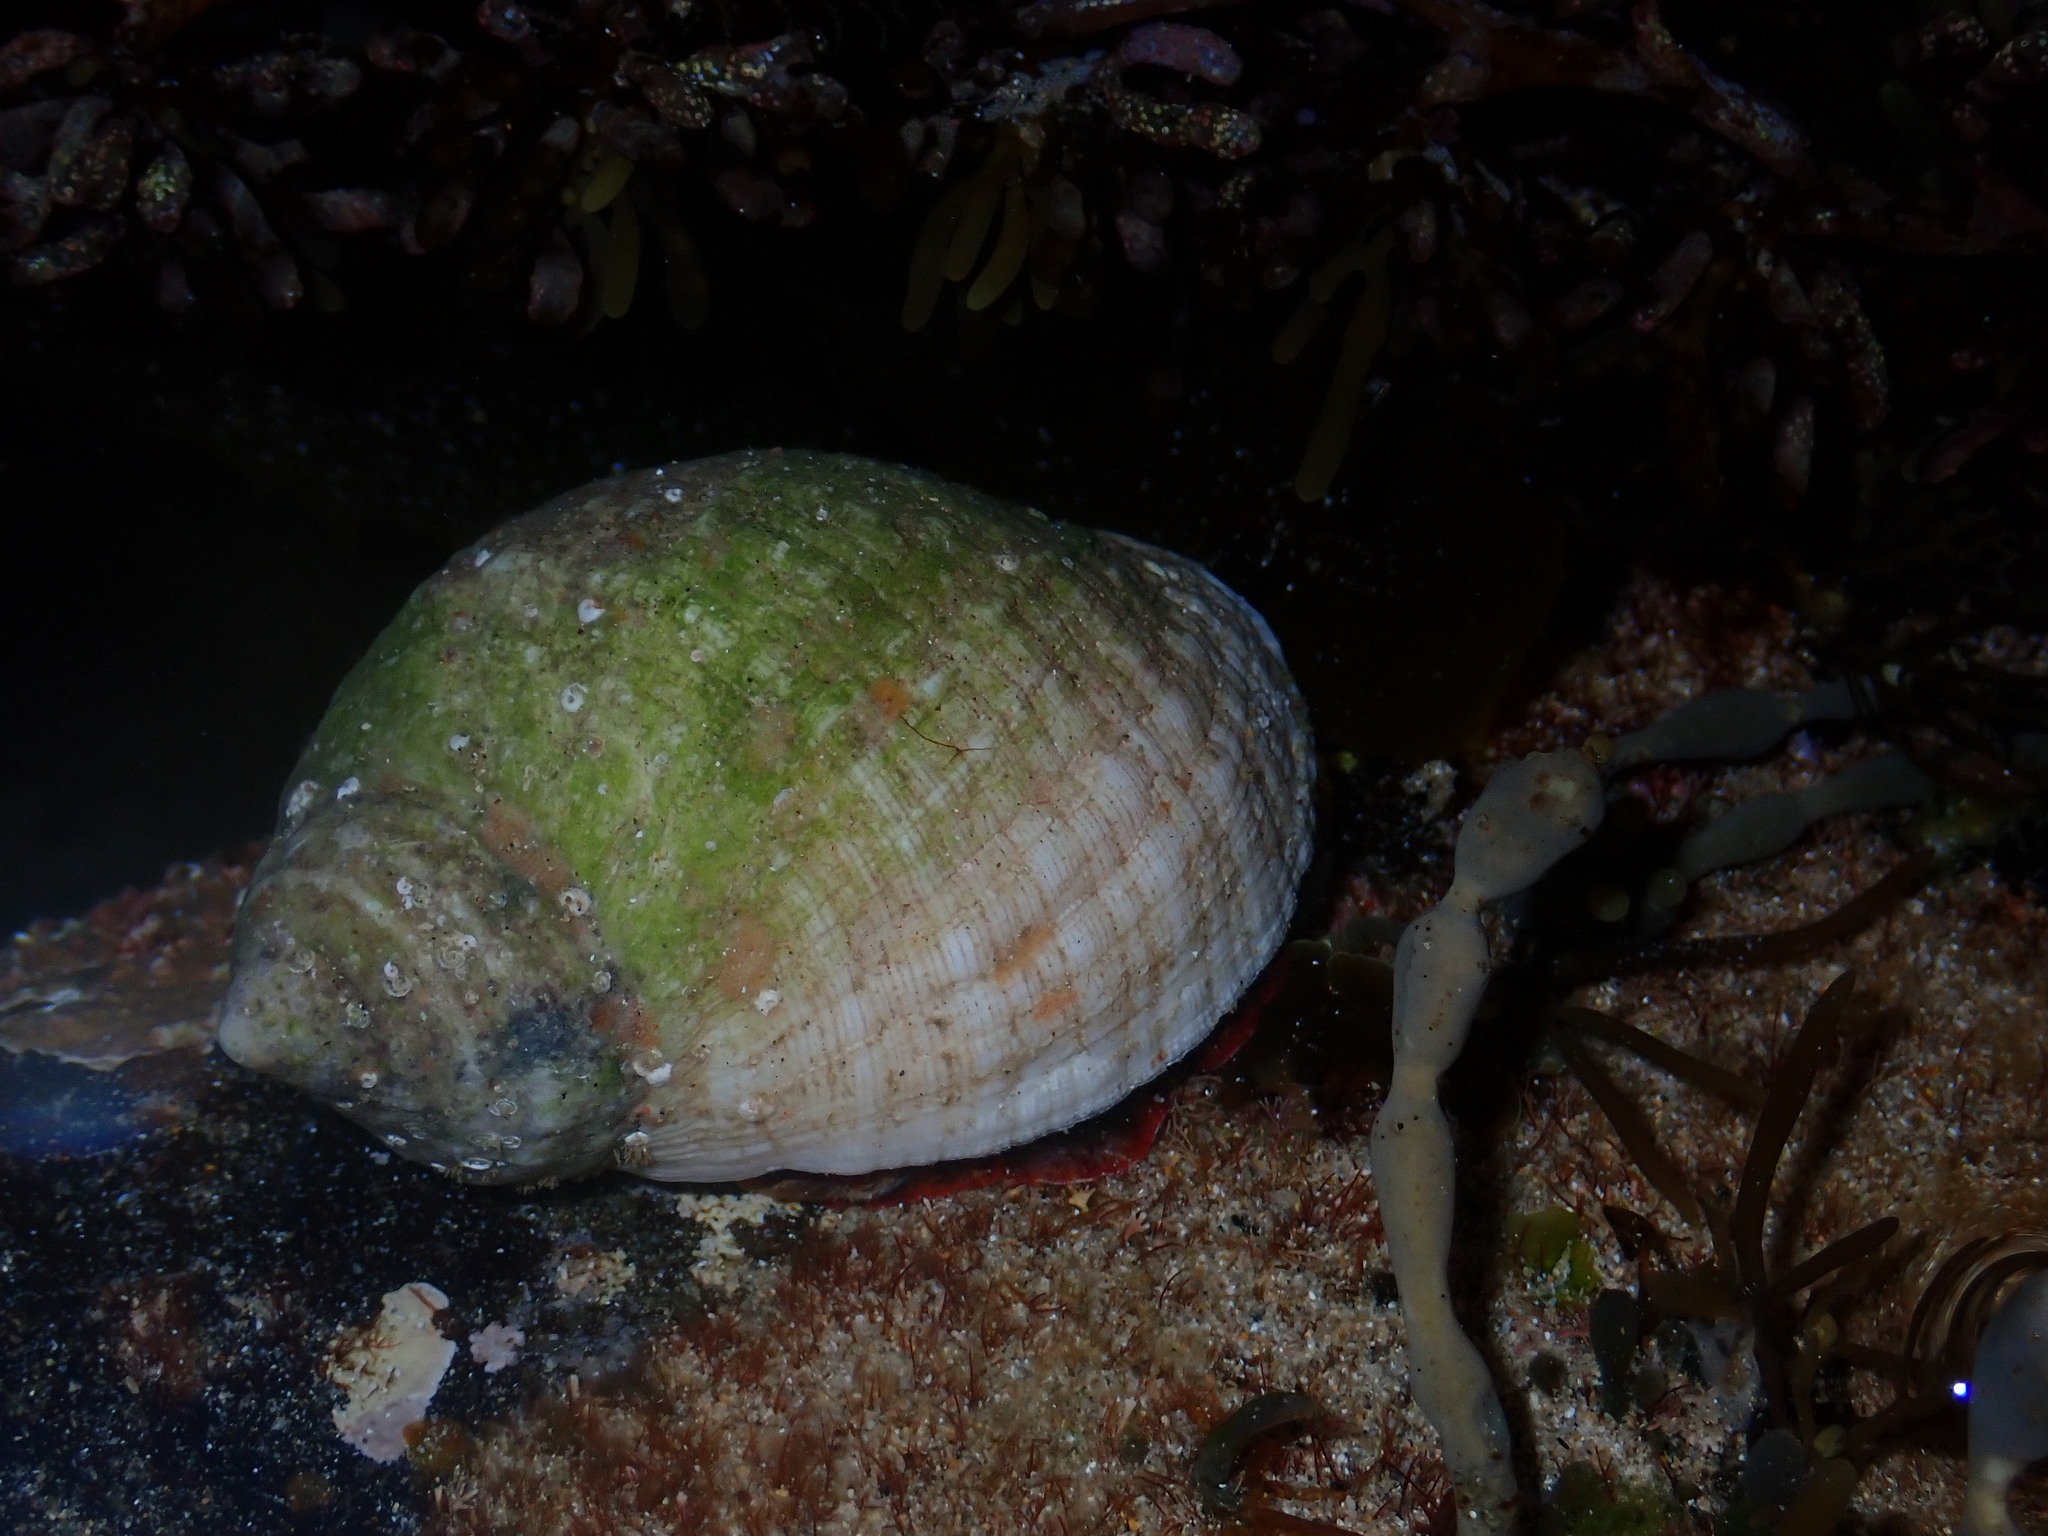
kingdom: Animalia
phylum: Mollusca
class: Gastropoda
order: Neogastropoda
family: Muricidae
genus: Dicathais
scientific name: Dicathais orbita
